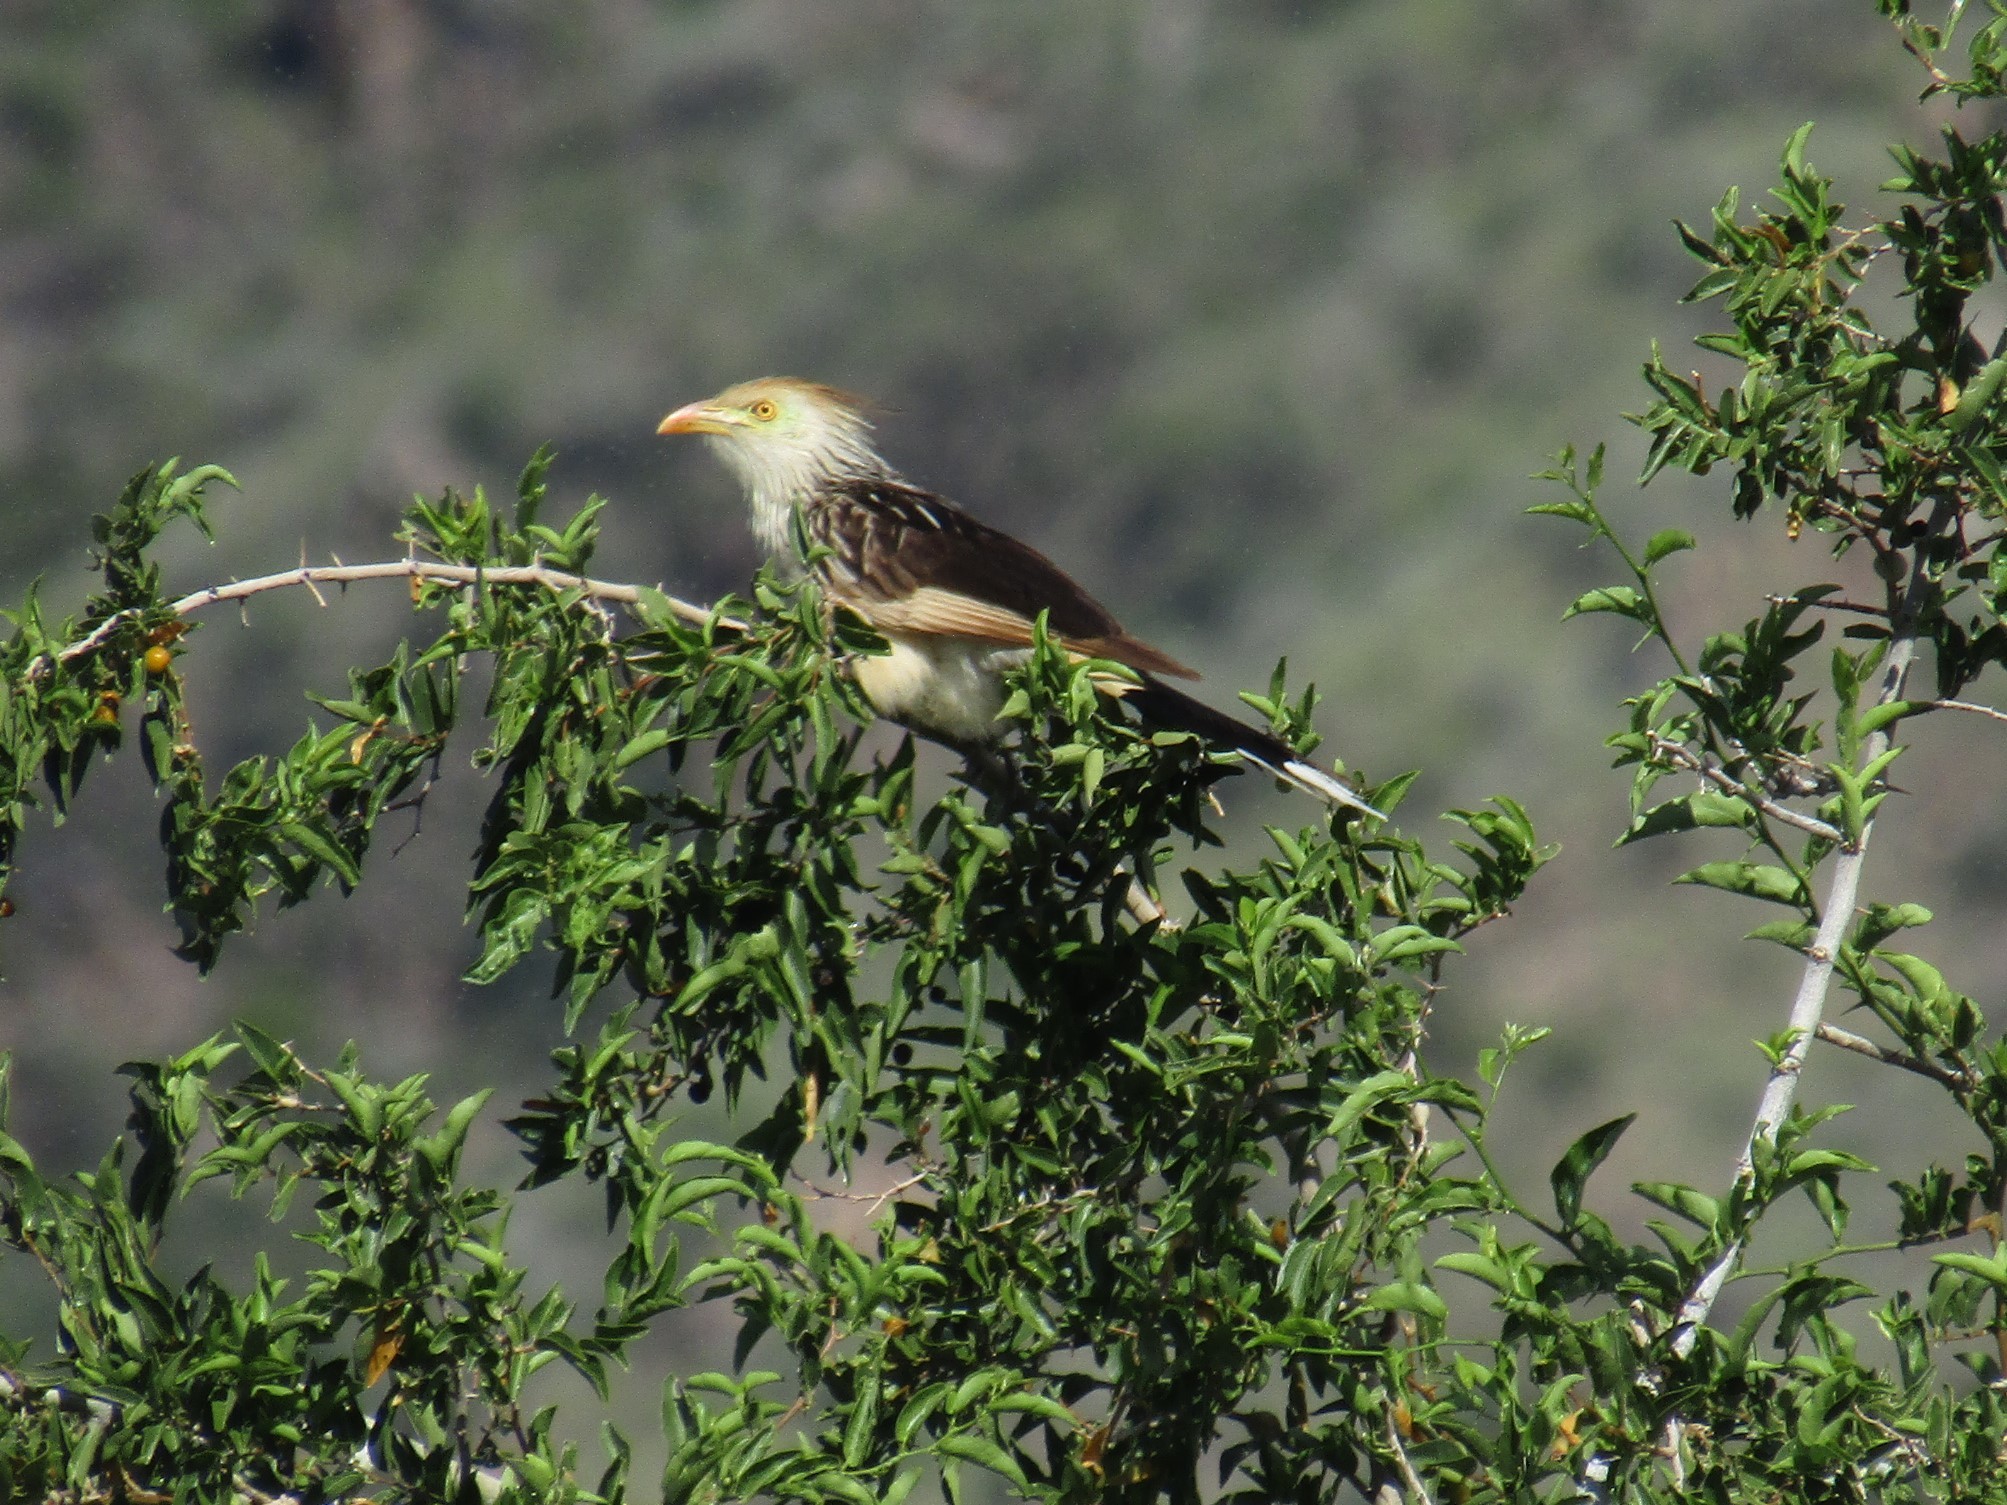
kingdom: Animalia
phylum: Chordata
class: Aves
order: Cuculiformes
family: Cuculidae
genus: Guira
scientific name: Guira guira
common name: Guira cuckoo
